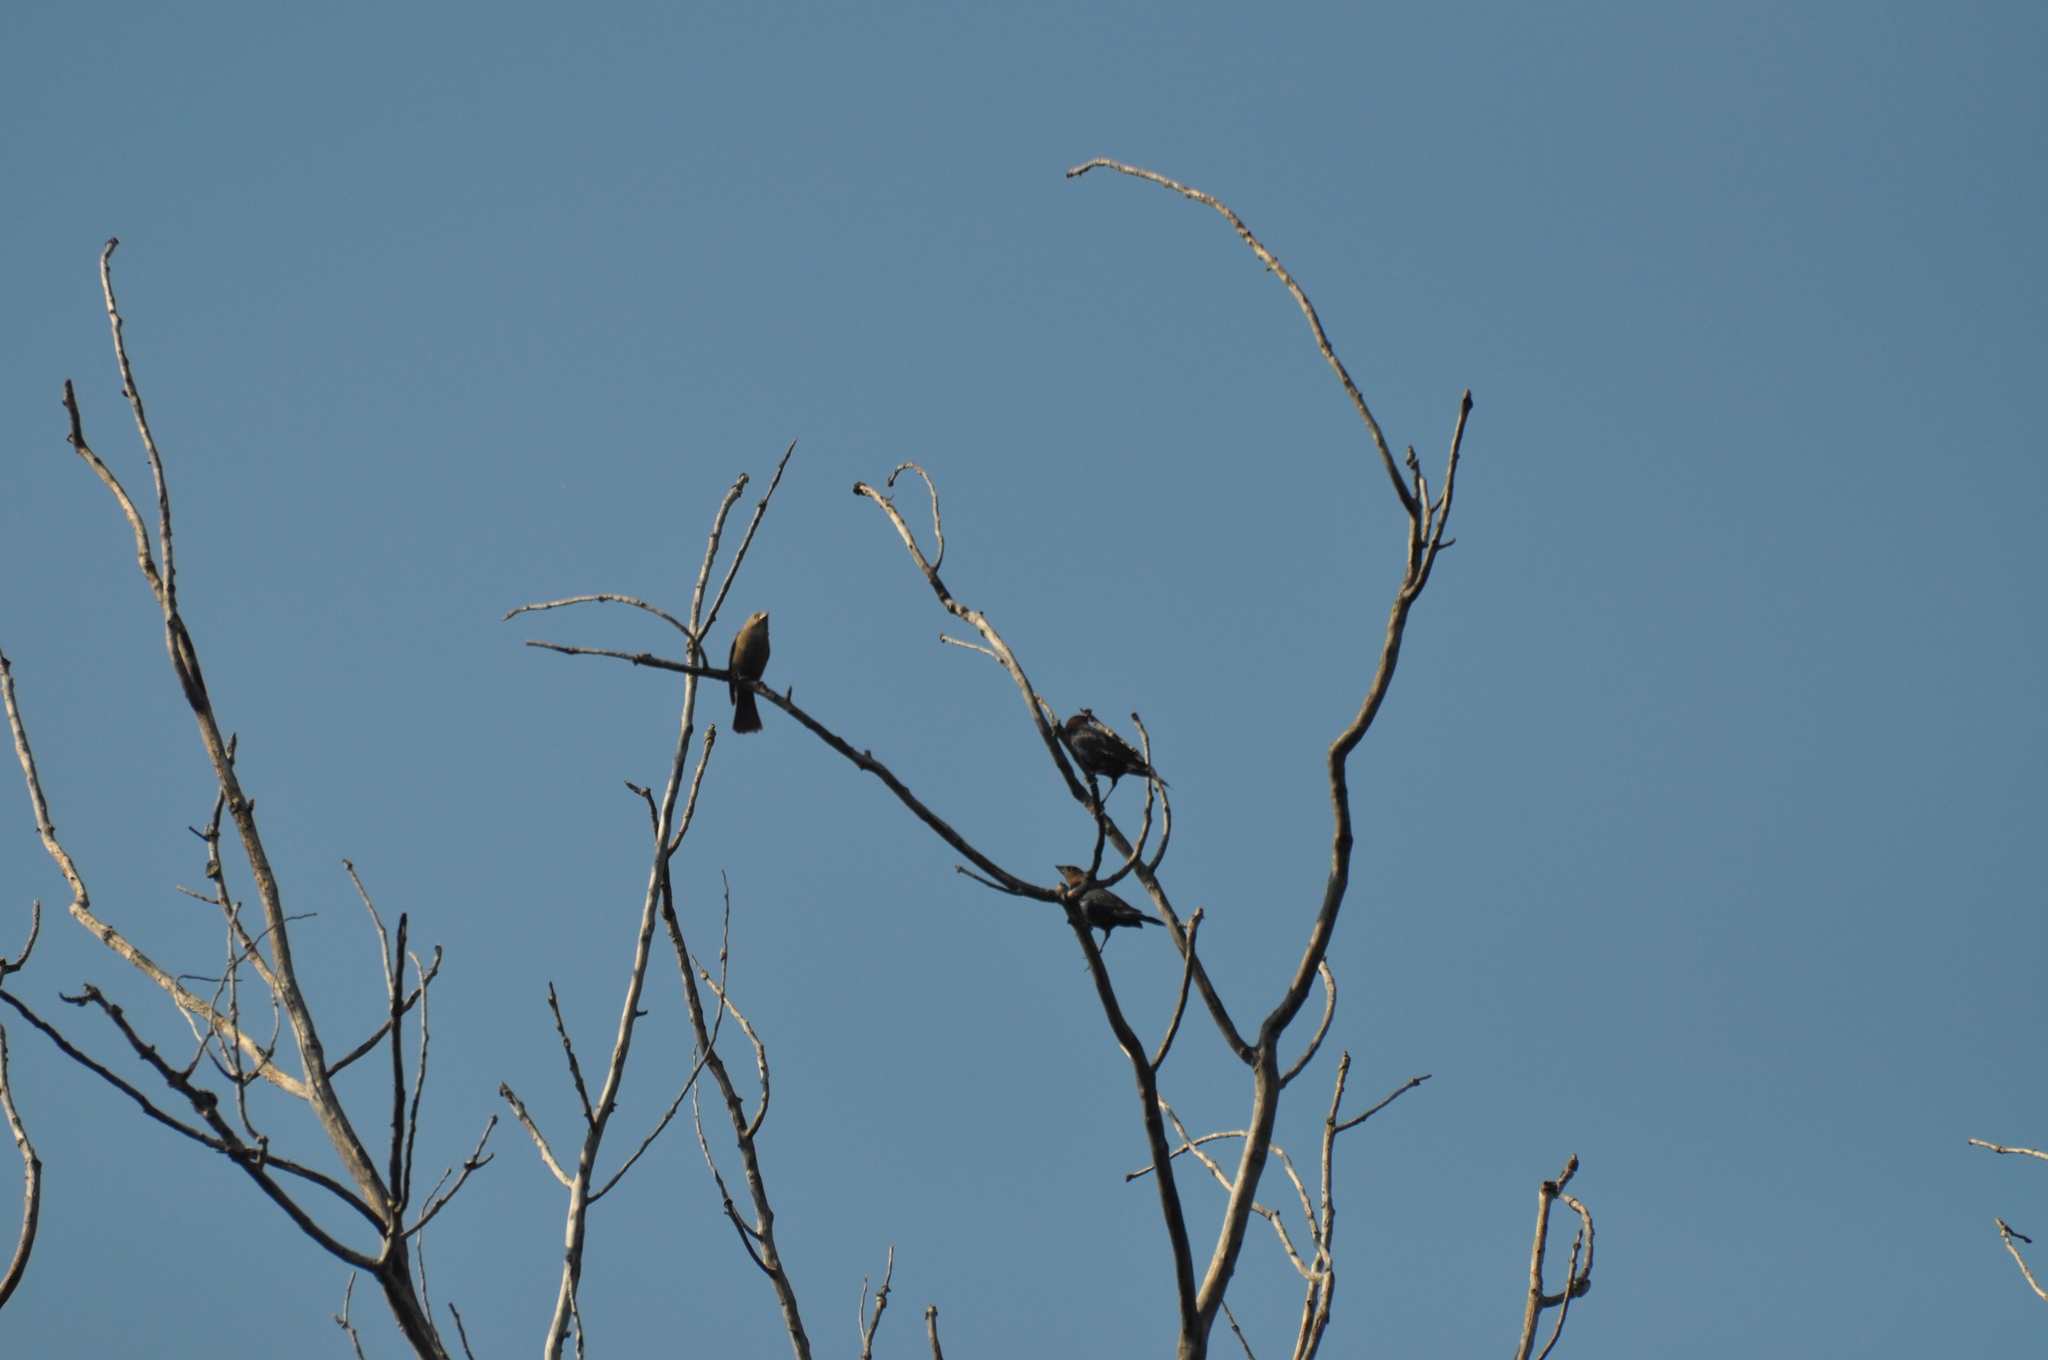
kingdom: Animalia
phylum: Chordata
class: Aves
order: Passeriformes
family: Icteridae
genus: Molothrus
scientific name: Molothrus ater
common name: Brown-headed cowbird
